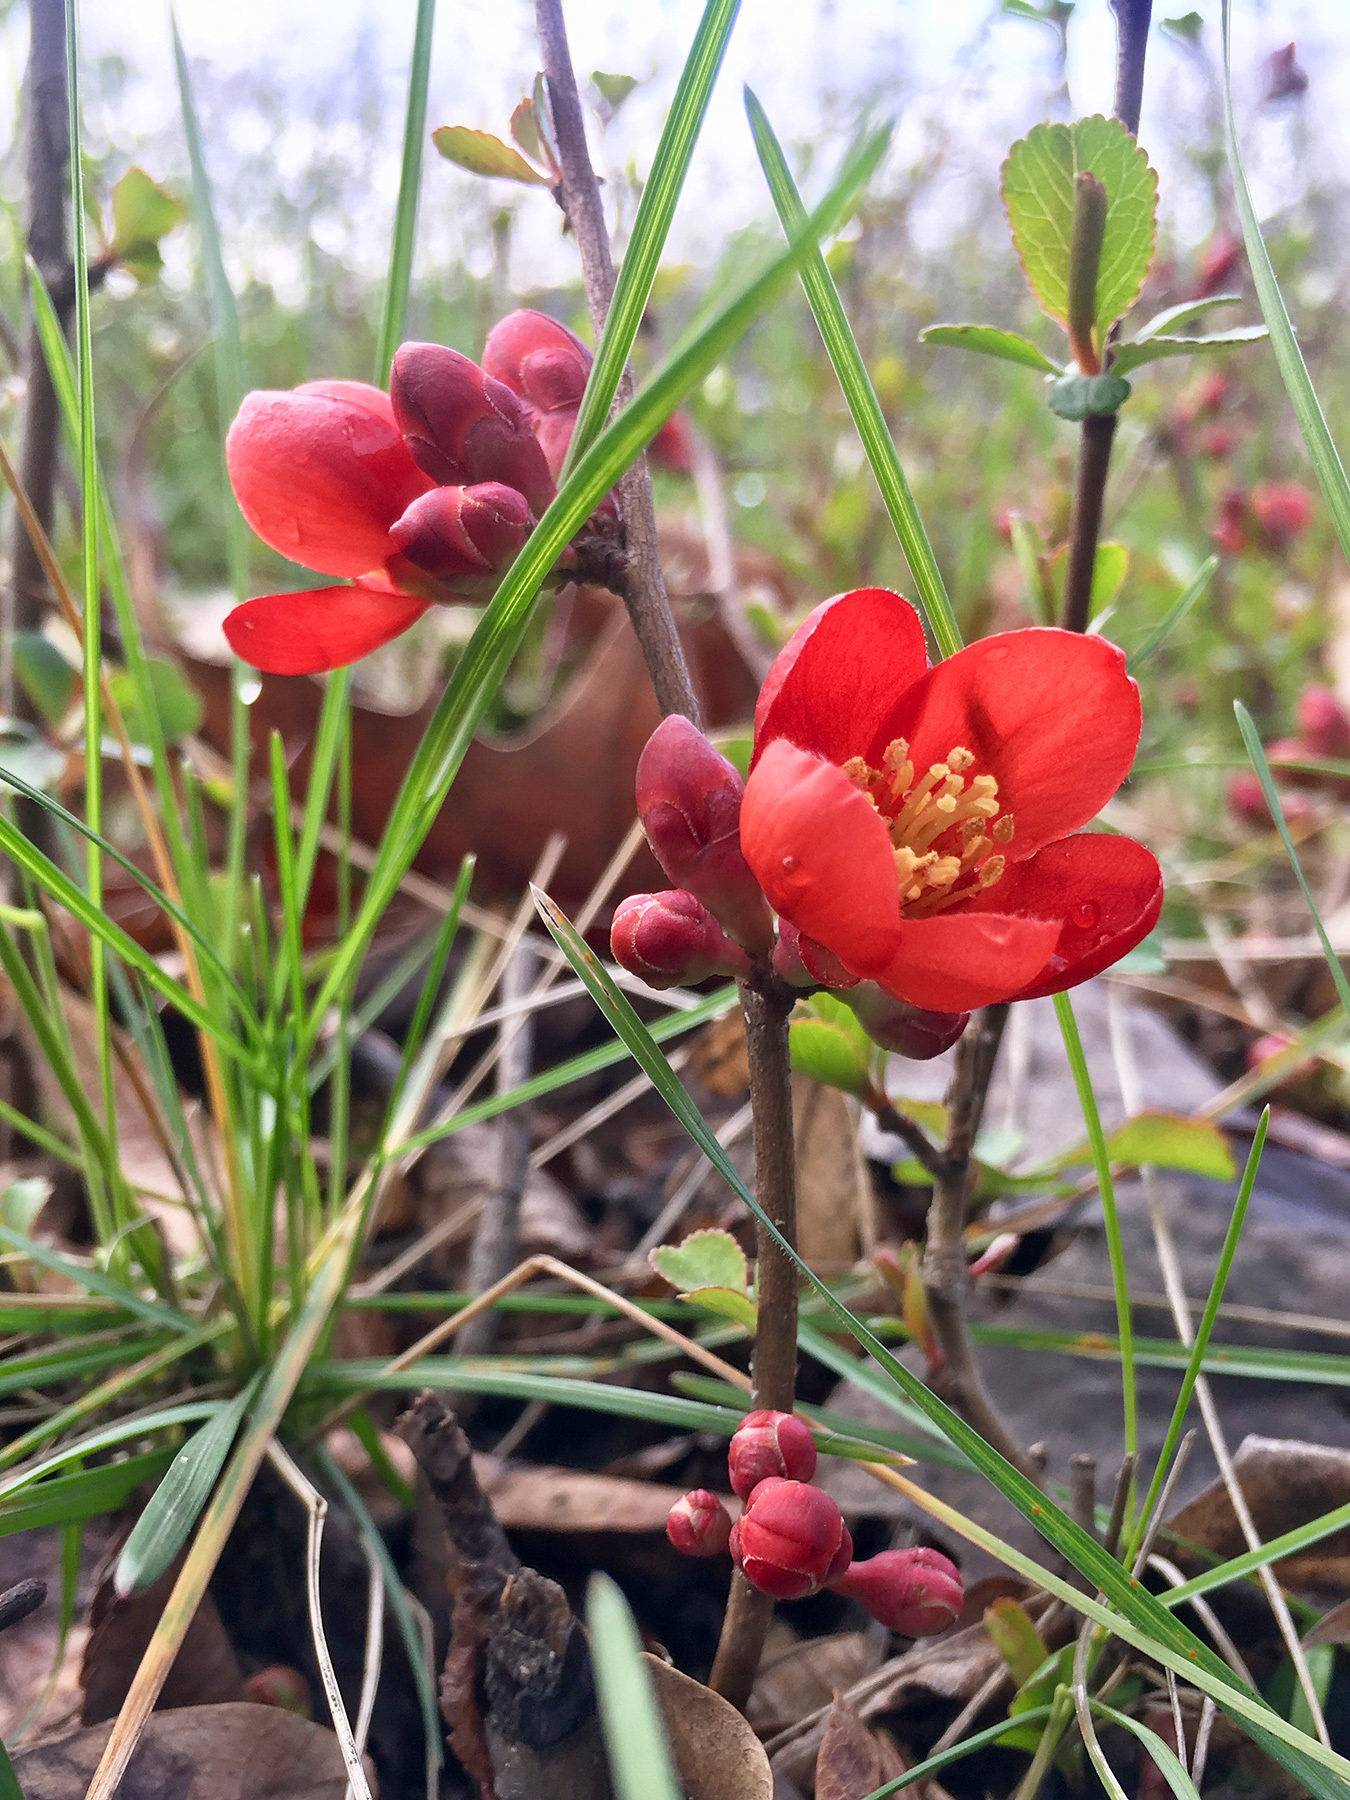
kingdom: Plantae
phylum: Tracheophyta
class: Magnoliopsida
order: Rosales
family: Rosaceae
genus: Chaenomeles
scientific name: Chaenomeles speciosa
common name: Japanese quince
